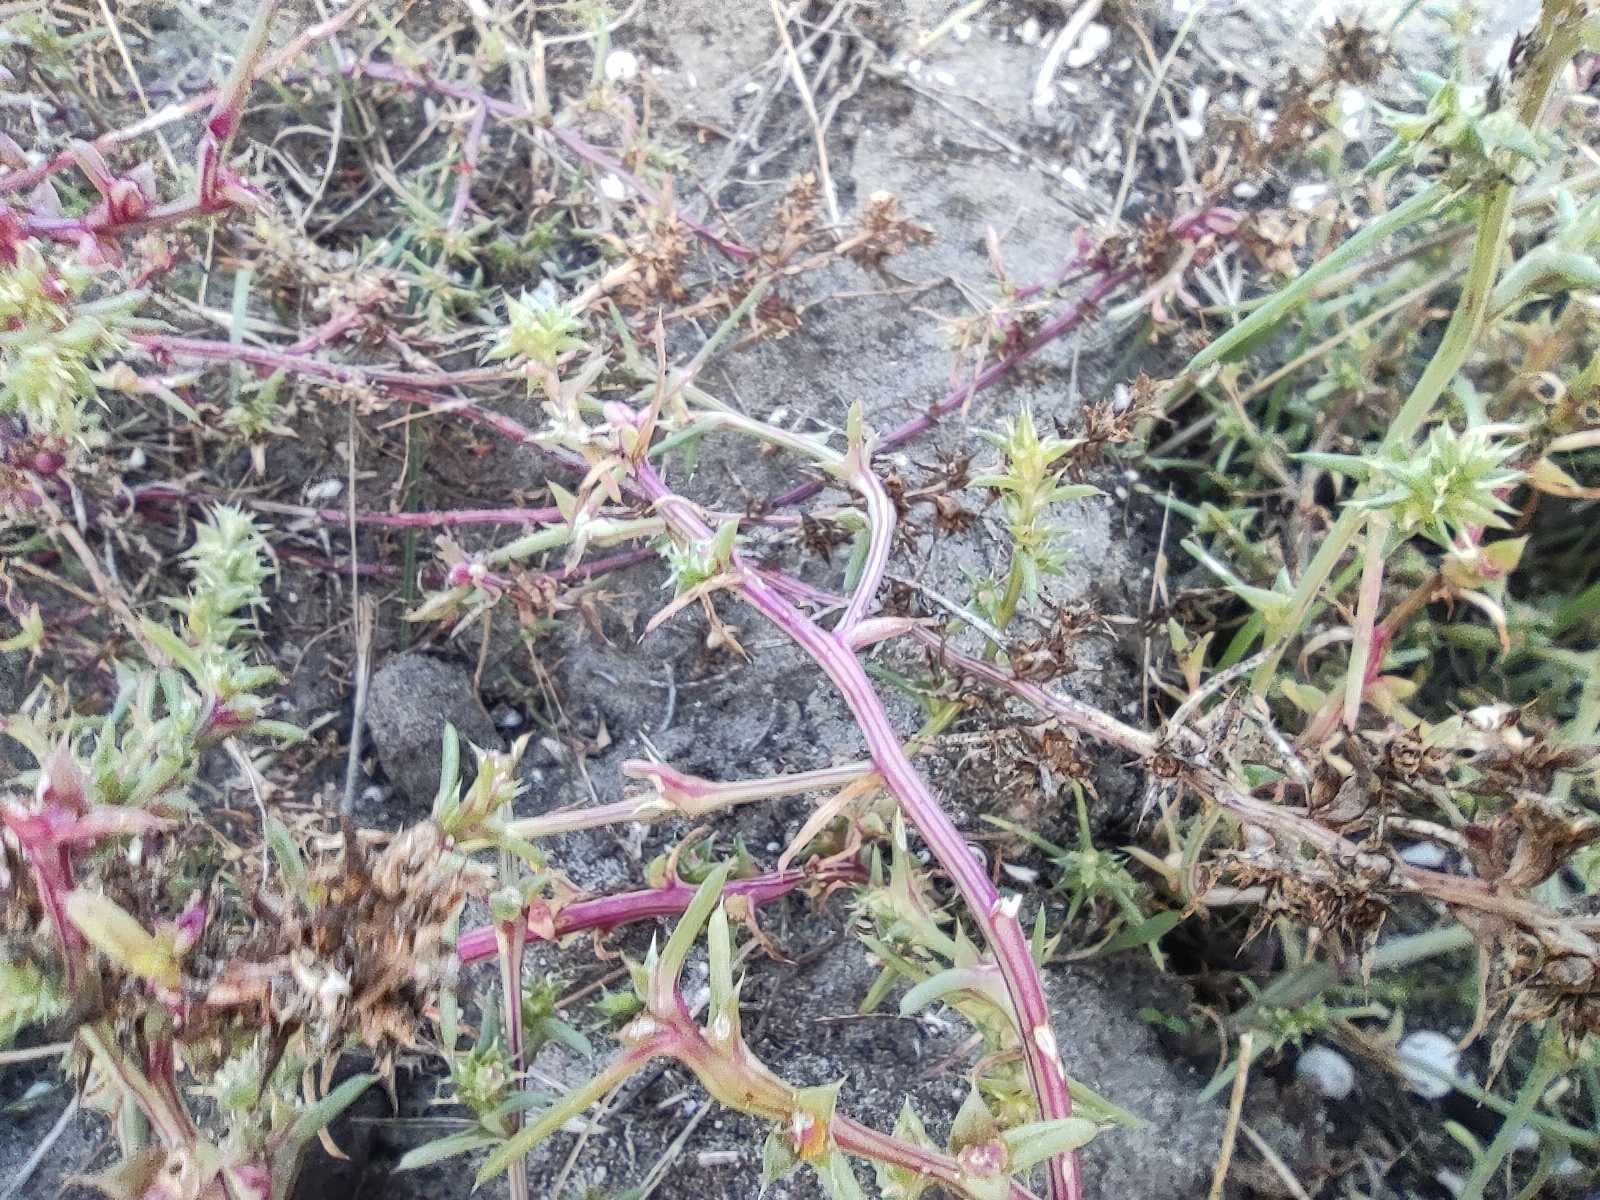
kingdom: Plantae
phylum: Tracheophyta
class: Magnoliopsida
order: Caryophyllales
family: Amaranthaceae
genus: Salsola
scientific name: Salsola kali
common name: Saltwort
